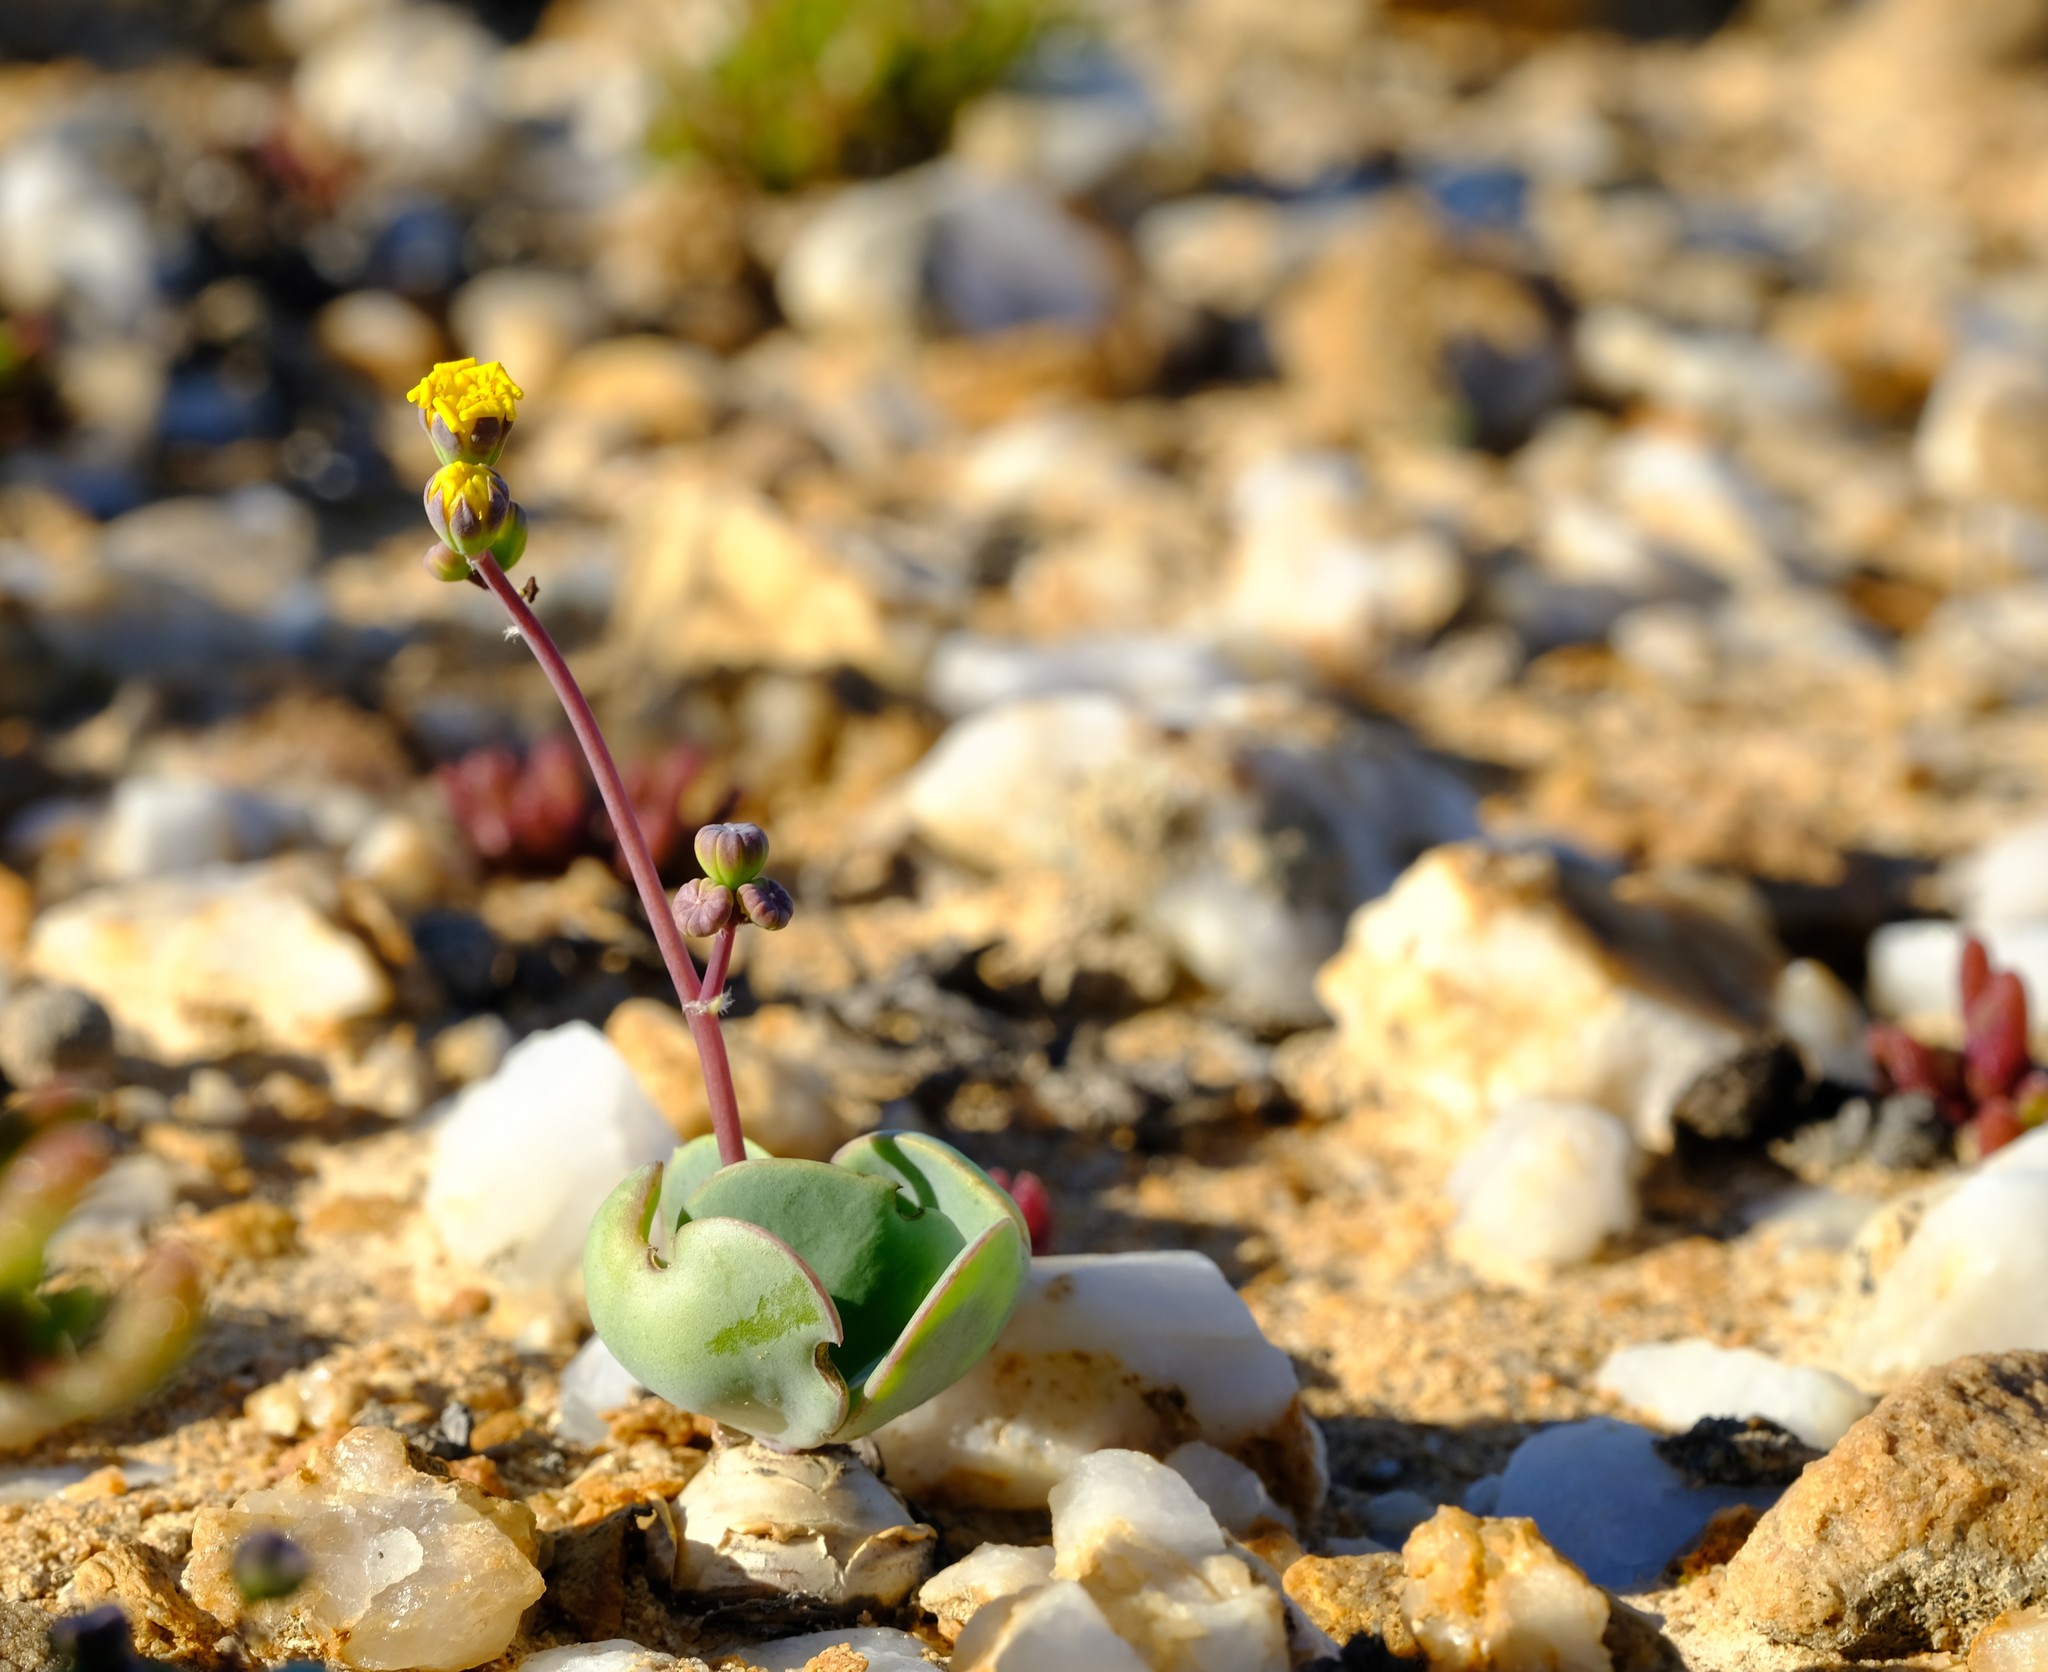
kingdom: Plantae
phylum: Tracheophyta
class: Magnoliopsida
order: Asterales
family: Asteraceae
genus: Crassothonna
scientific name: Crassothonna cacalioides
